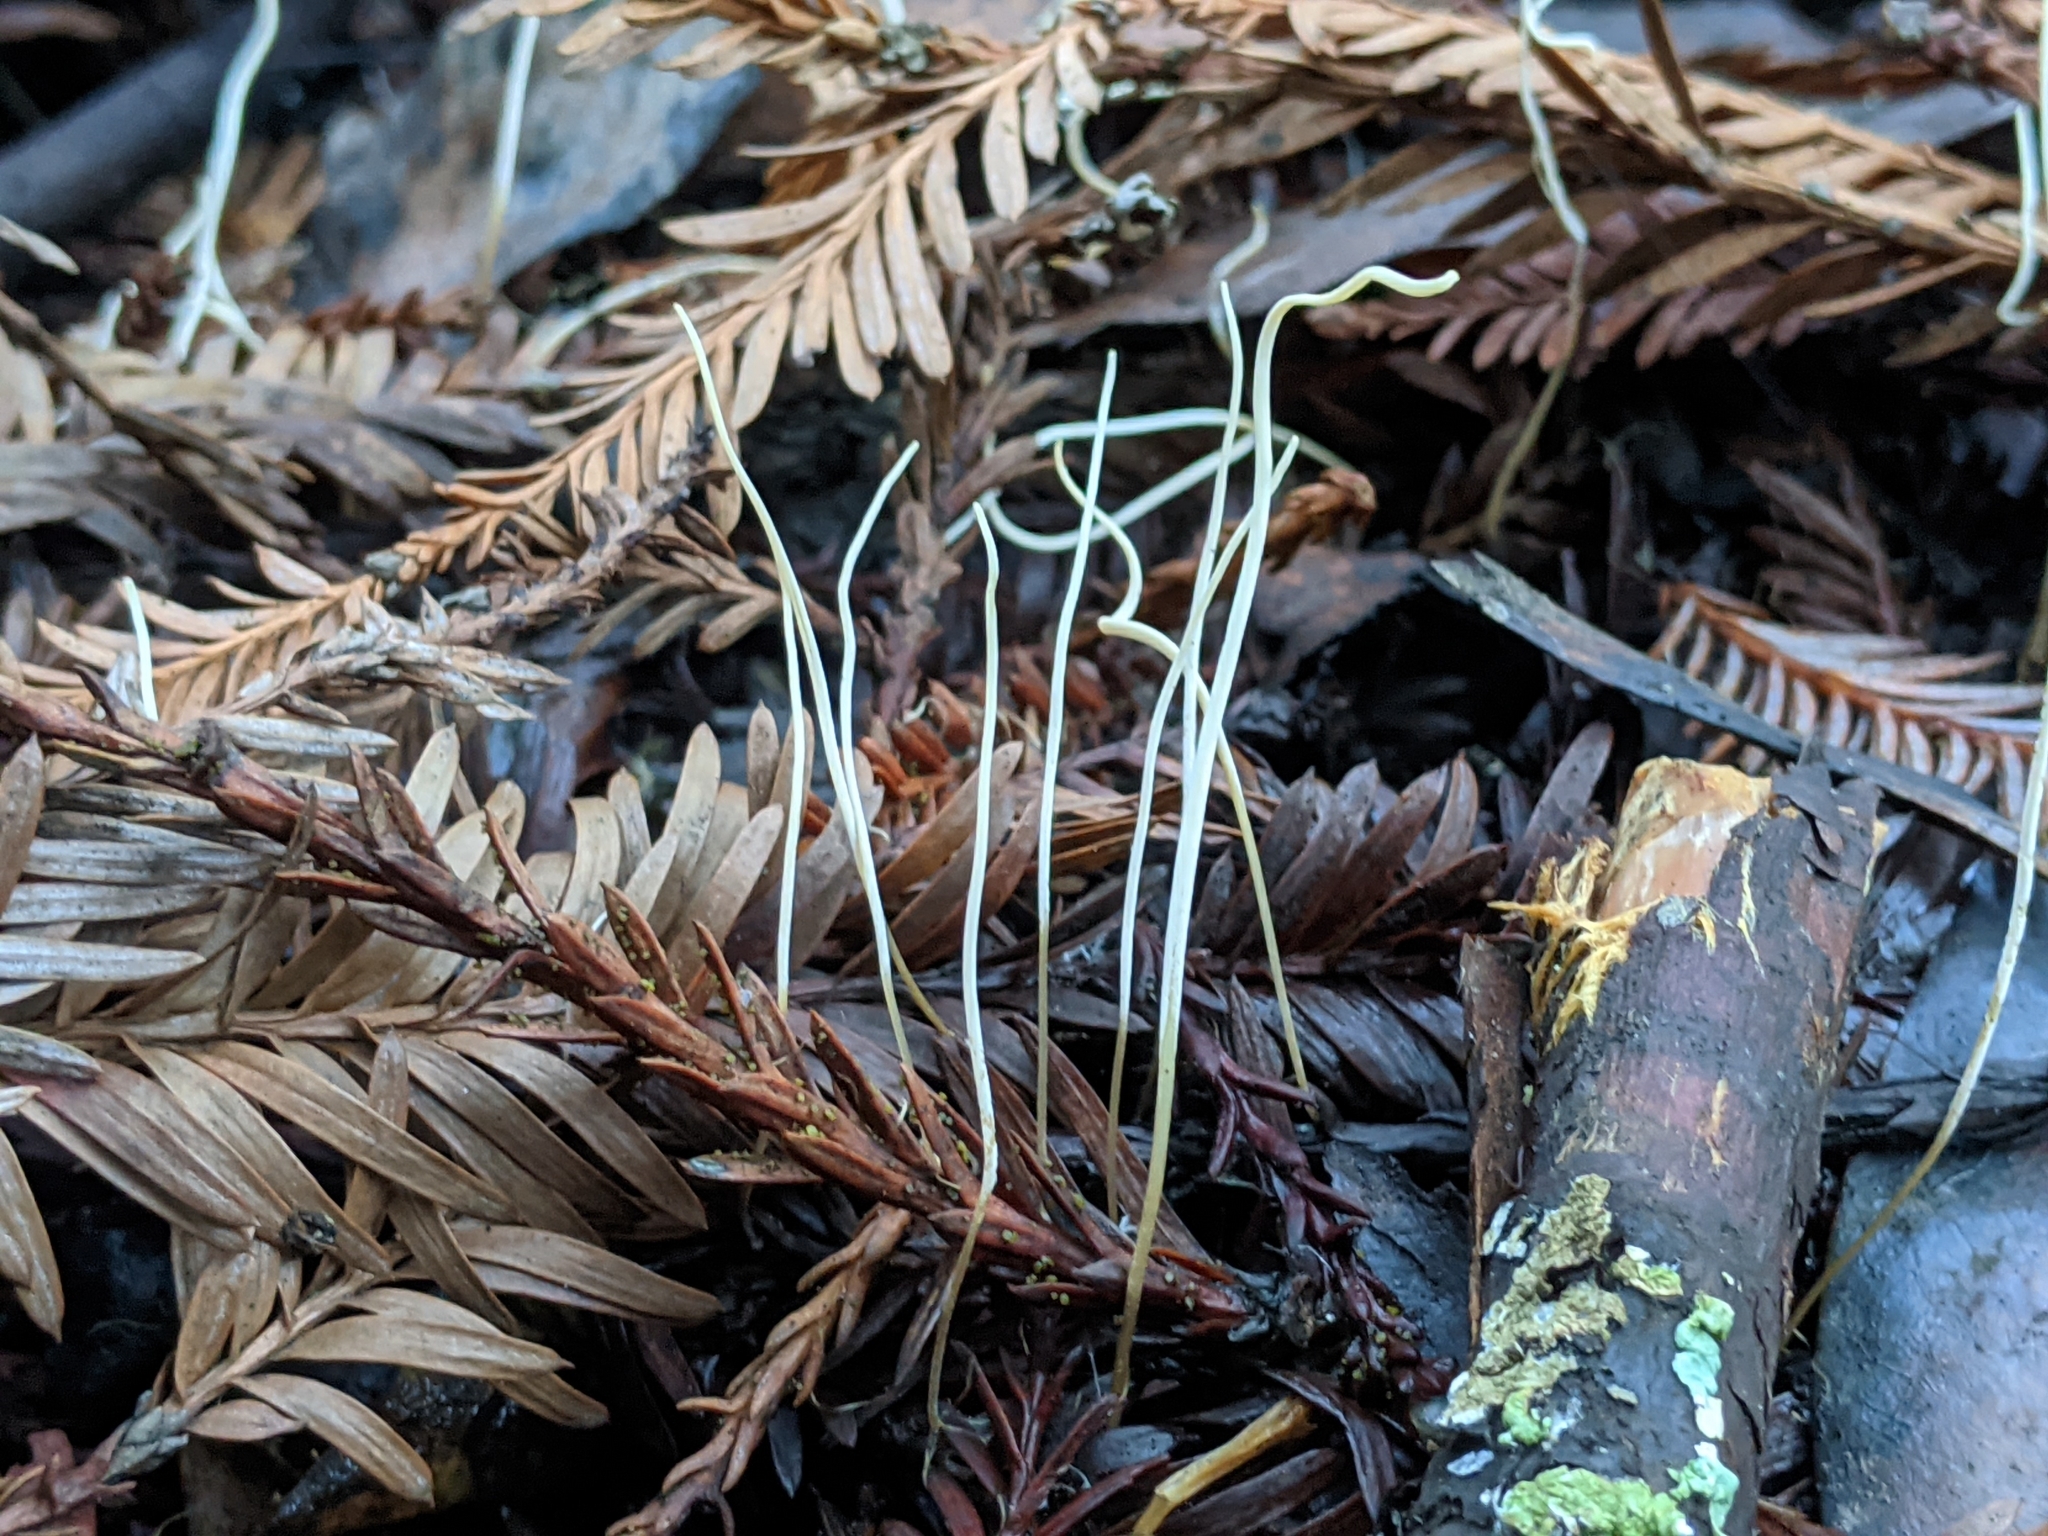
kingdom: Fungi
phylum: Basidiomycota
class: Agaricomycetes
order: Agaricales
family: Typhulaceae
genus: Typhula
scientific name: Typhula juncea
